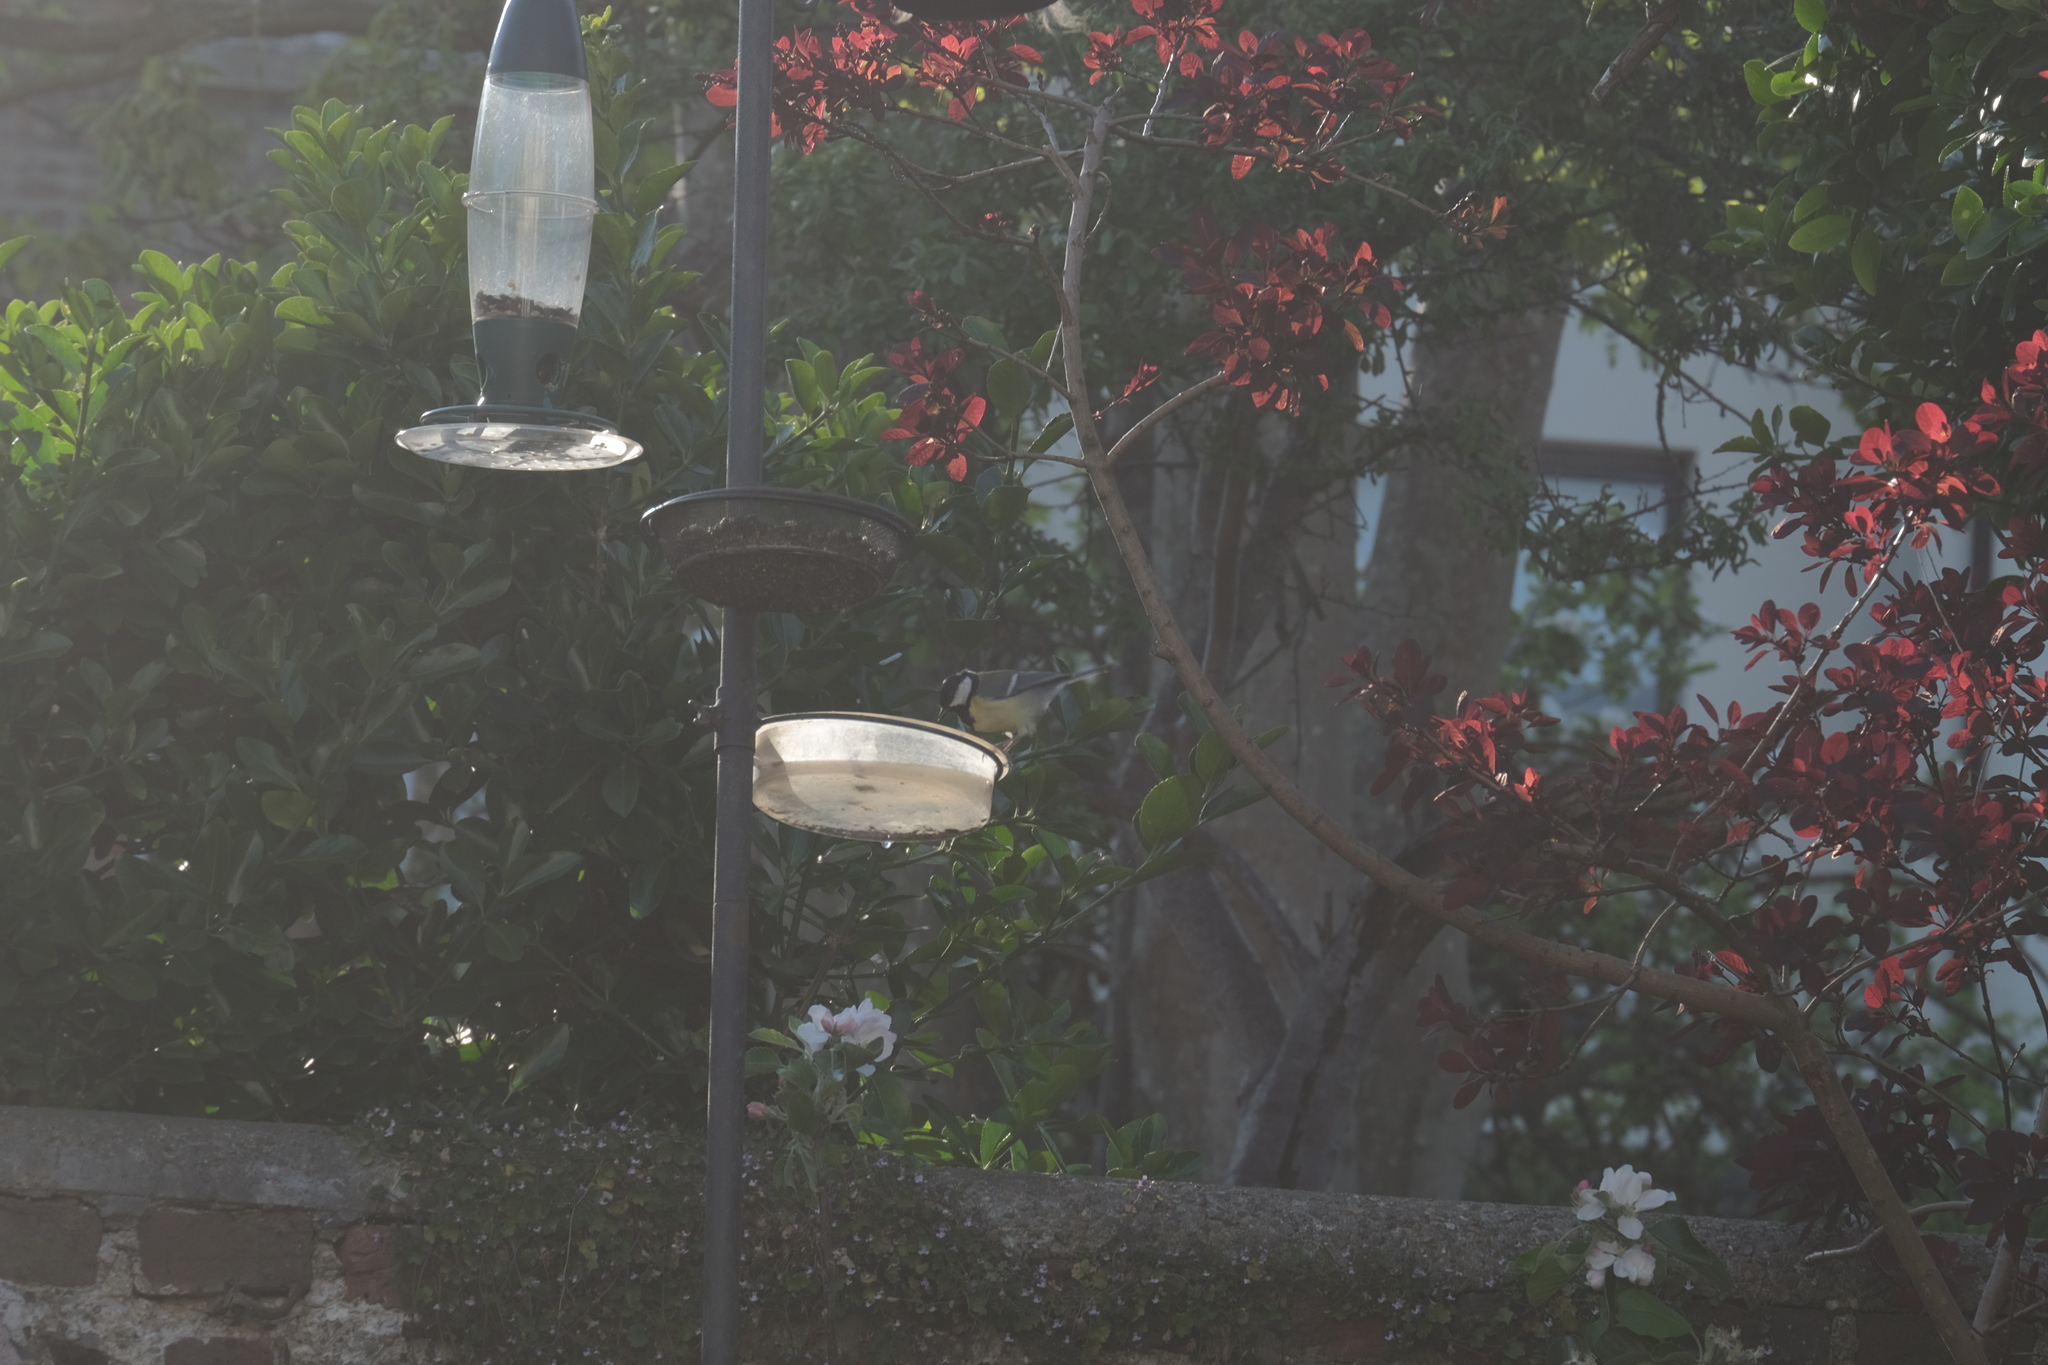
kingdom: Animalia
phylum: Chordata
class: Aves
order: Passeriformes
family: Paridae
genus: Parus
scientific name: Parus major
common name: Great tit
